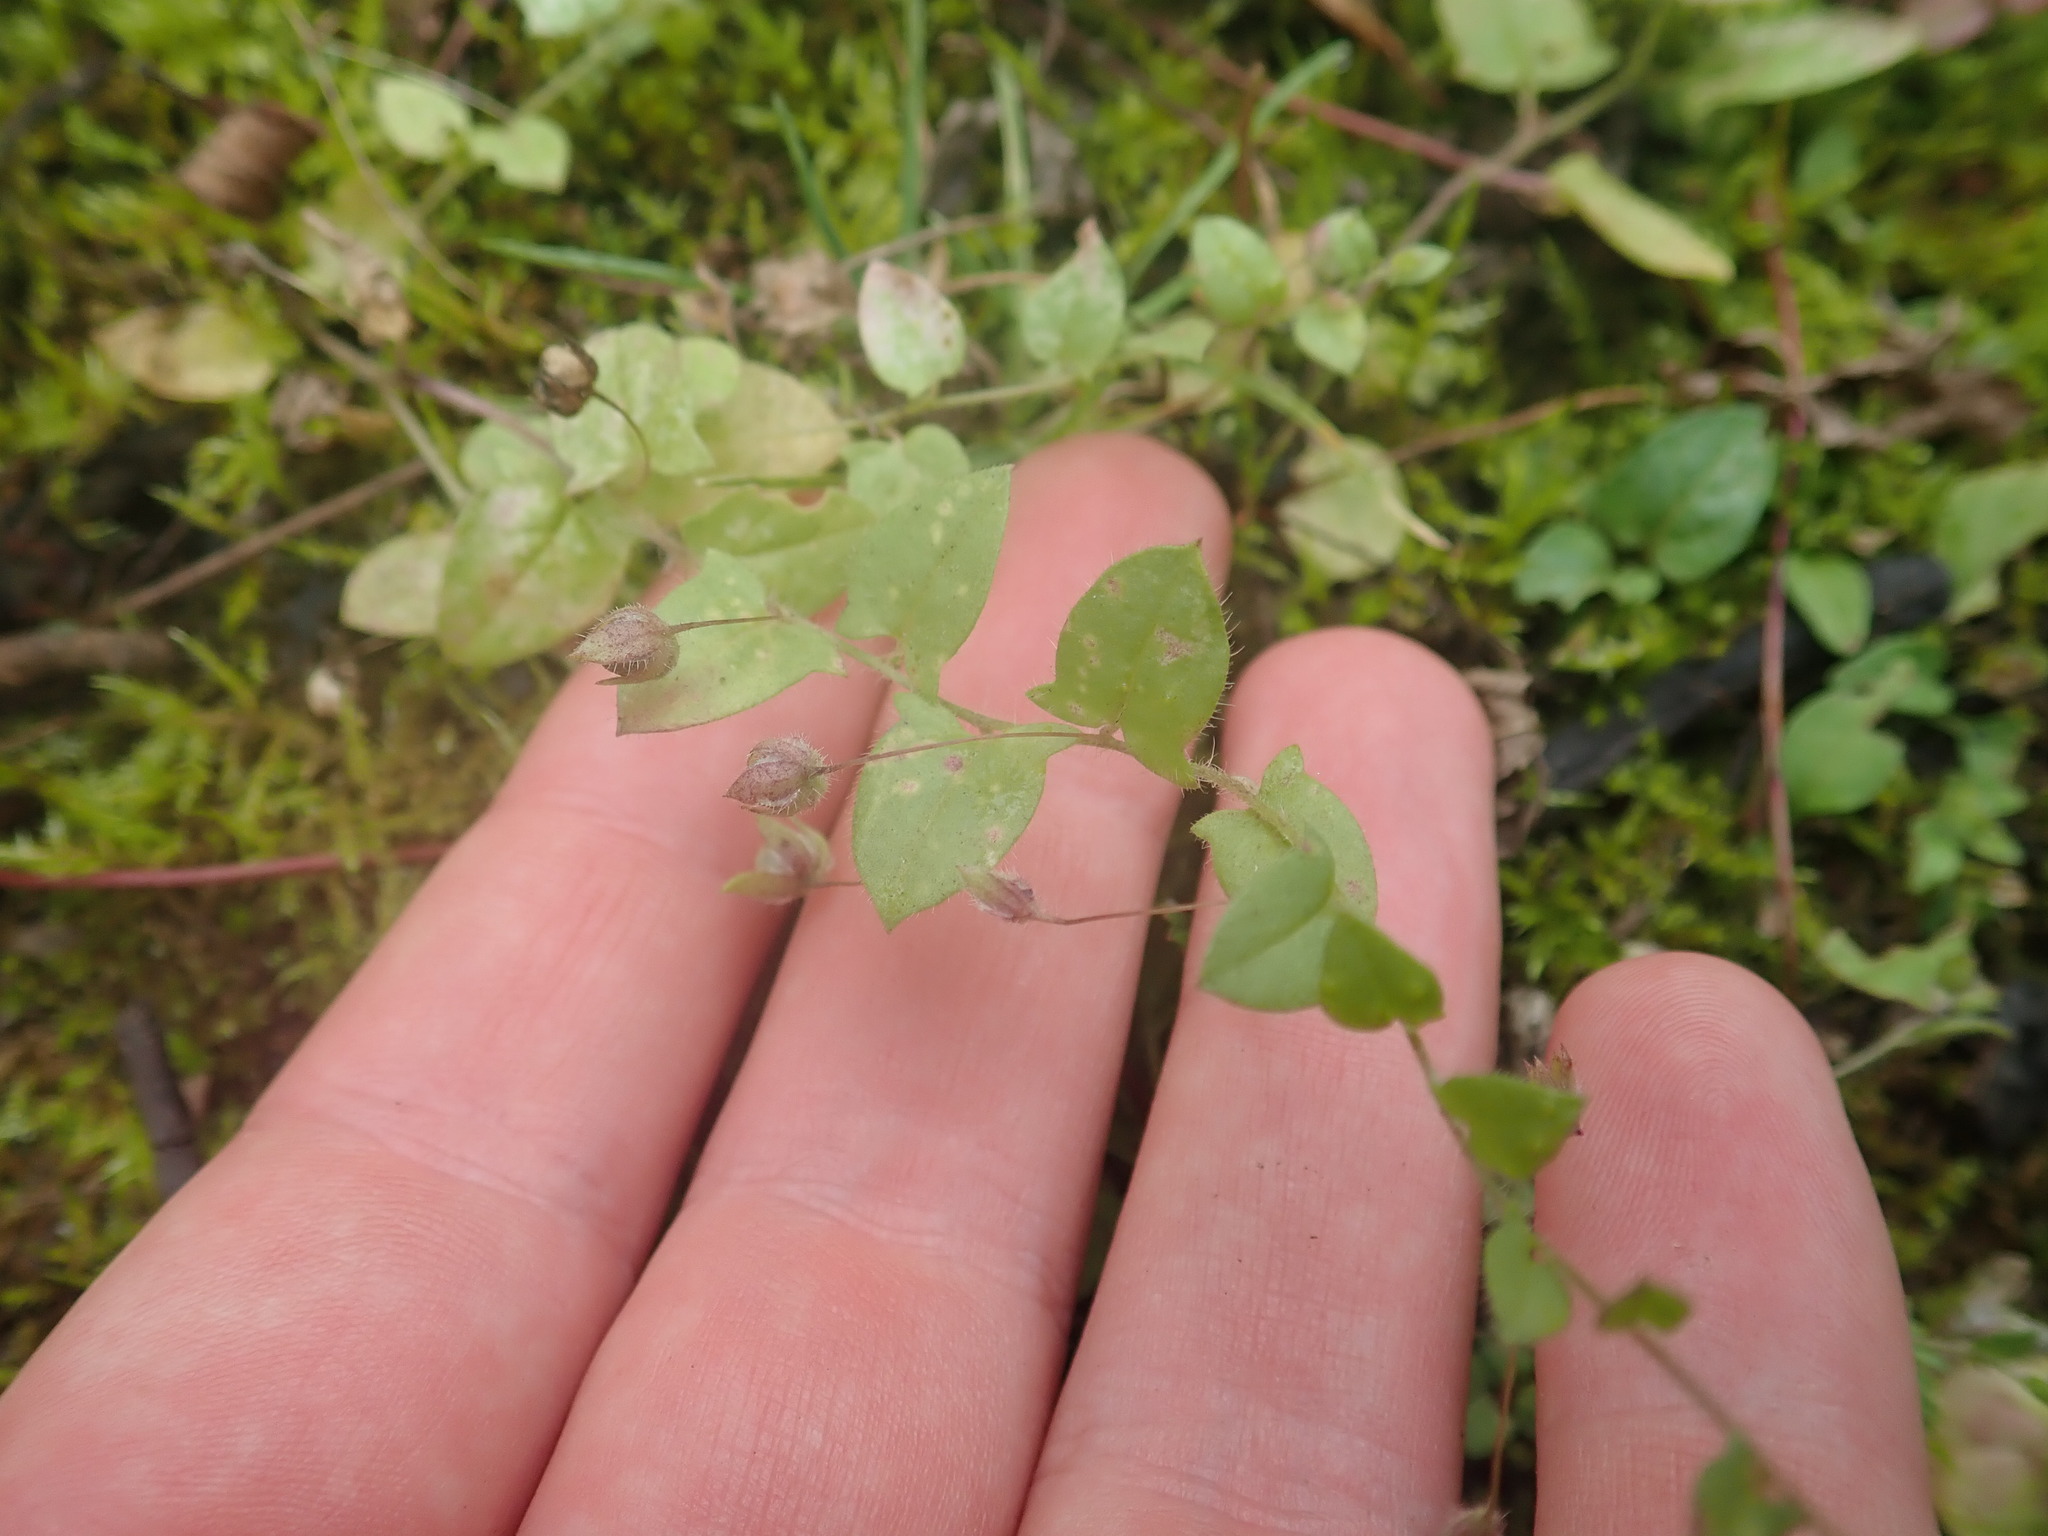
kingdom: Plantae
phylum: Tracheophyta
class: Magnoliopsida
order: Lamiales
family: Plantaginaceae
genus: Kickxia
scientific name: Kickxia elatine
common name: Sharp-leaved fluellen
